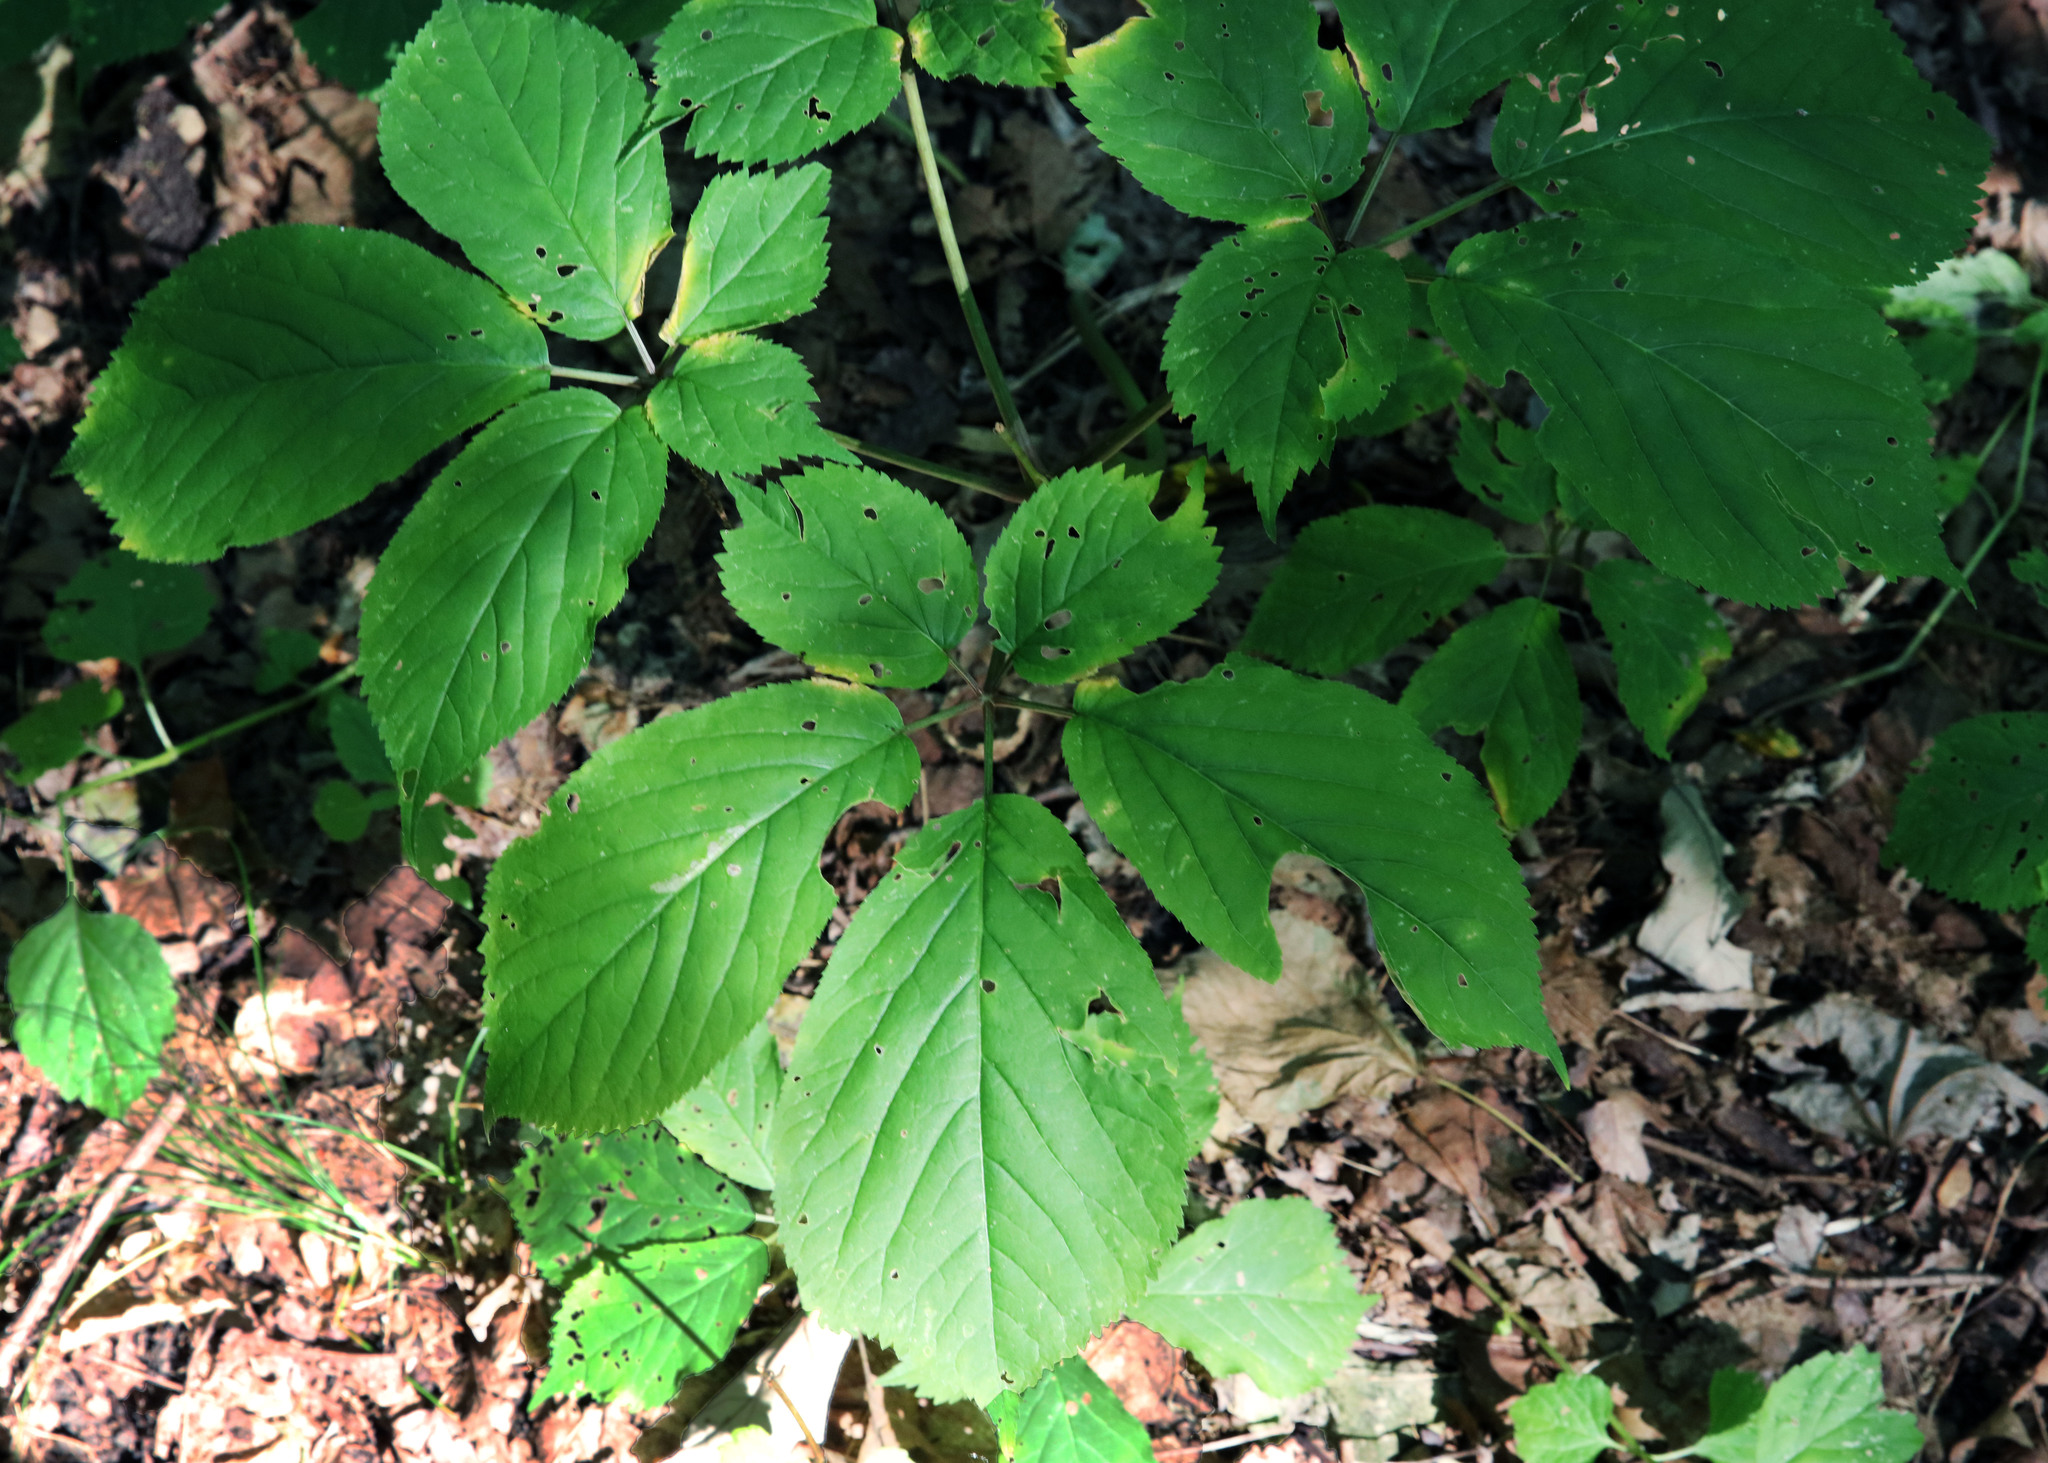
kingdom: Plantae
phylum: Tracheophyta
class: Magnoliopsida
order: Apiales
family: Araliaceae
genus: Panax
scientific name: Panax quinquefolius
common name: American ginseng
